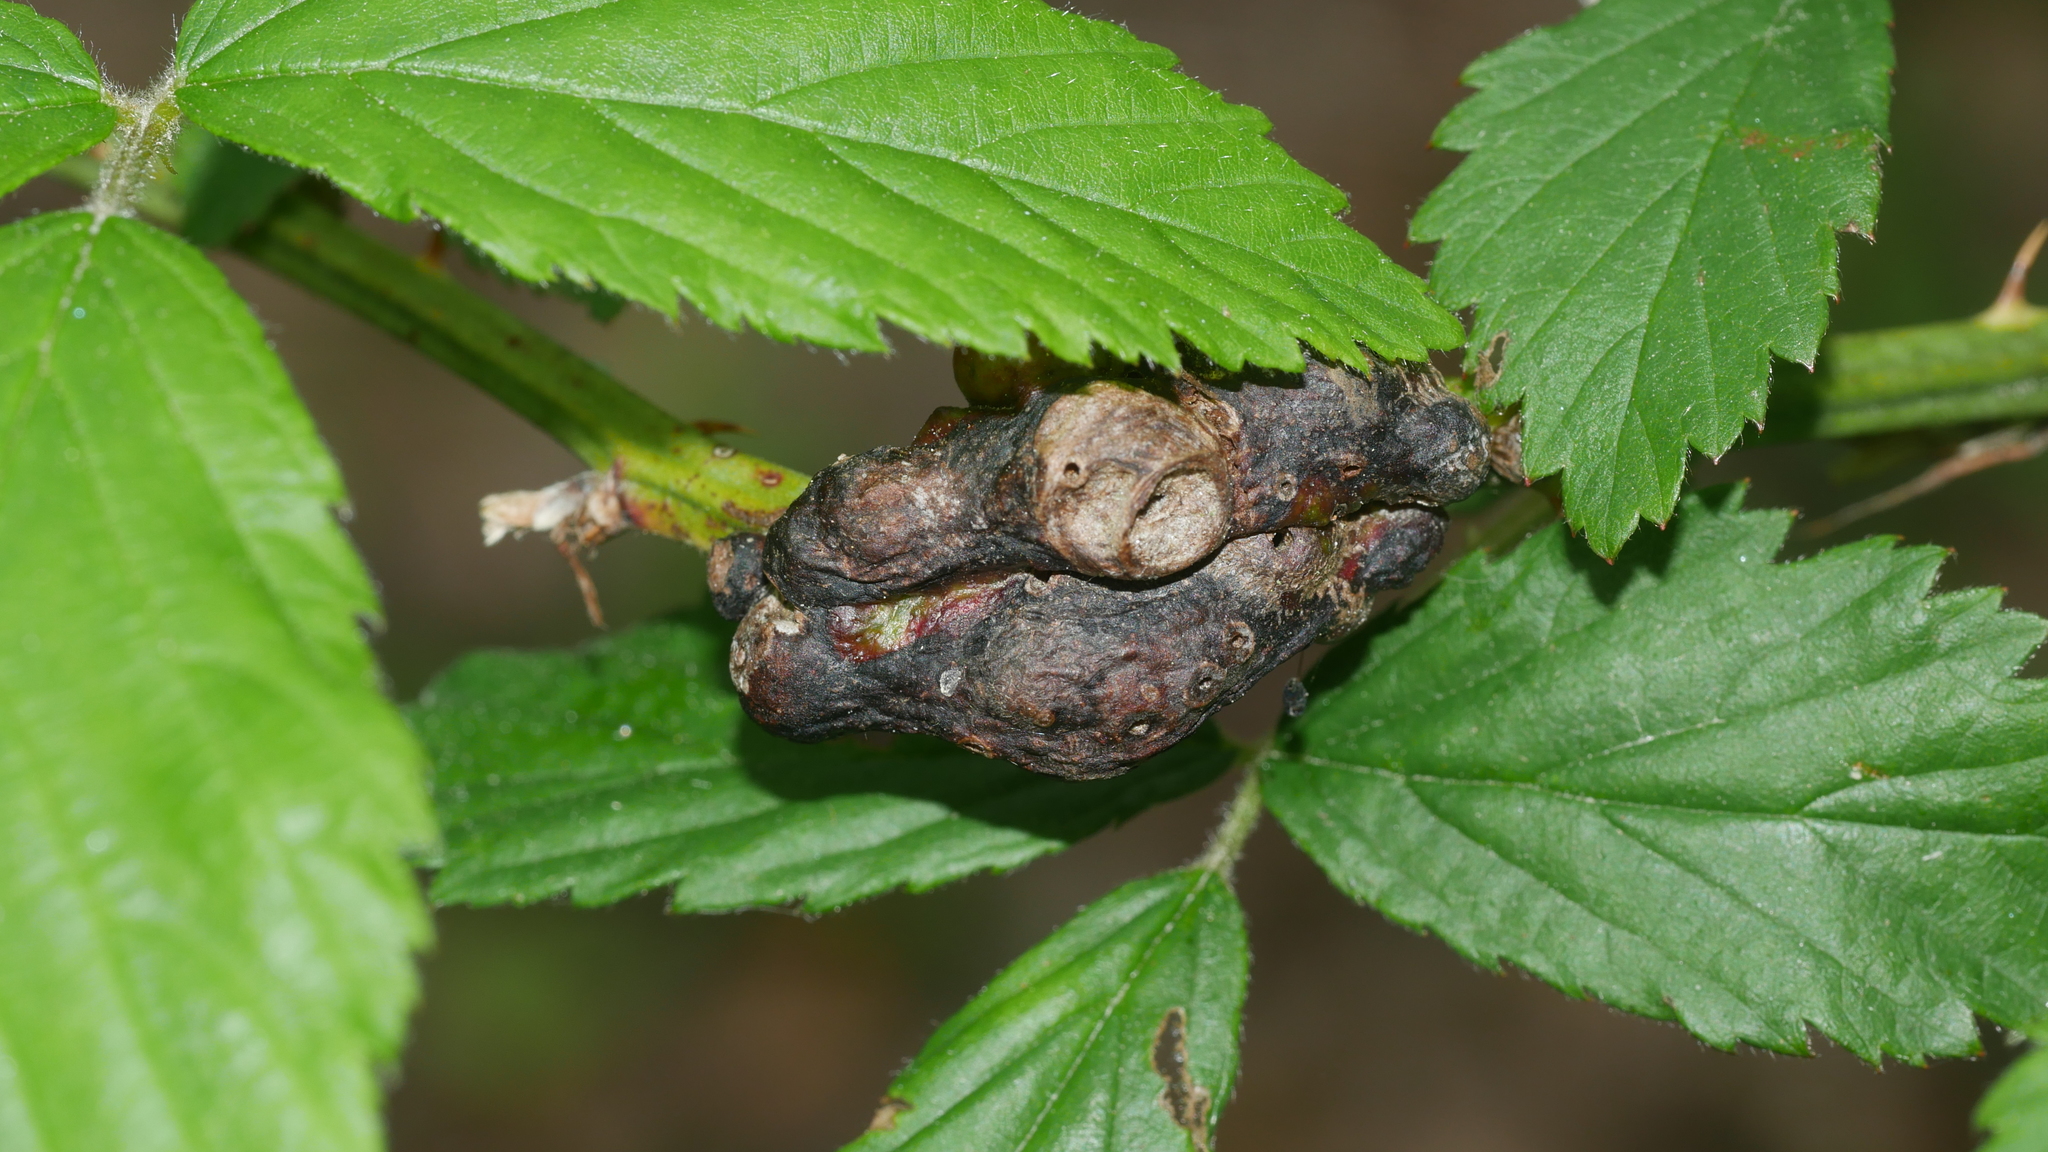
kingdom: Animalia
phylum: Arthropoda
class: Insecta
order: Hymenoptera
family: Cynipidae
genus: Diastrophus
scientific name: Diastrophus
